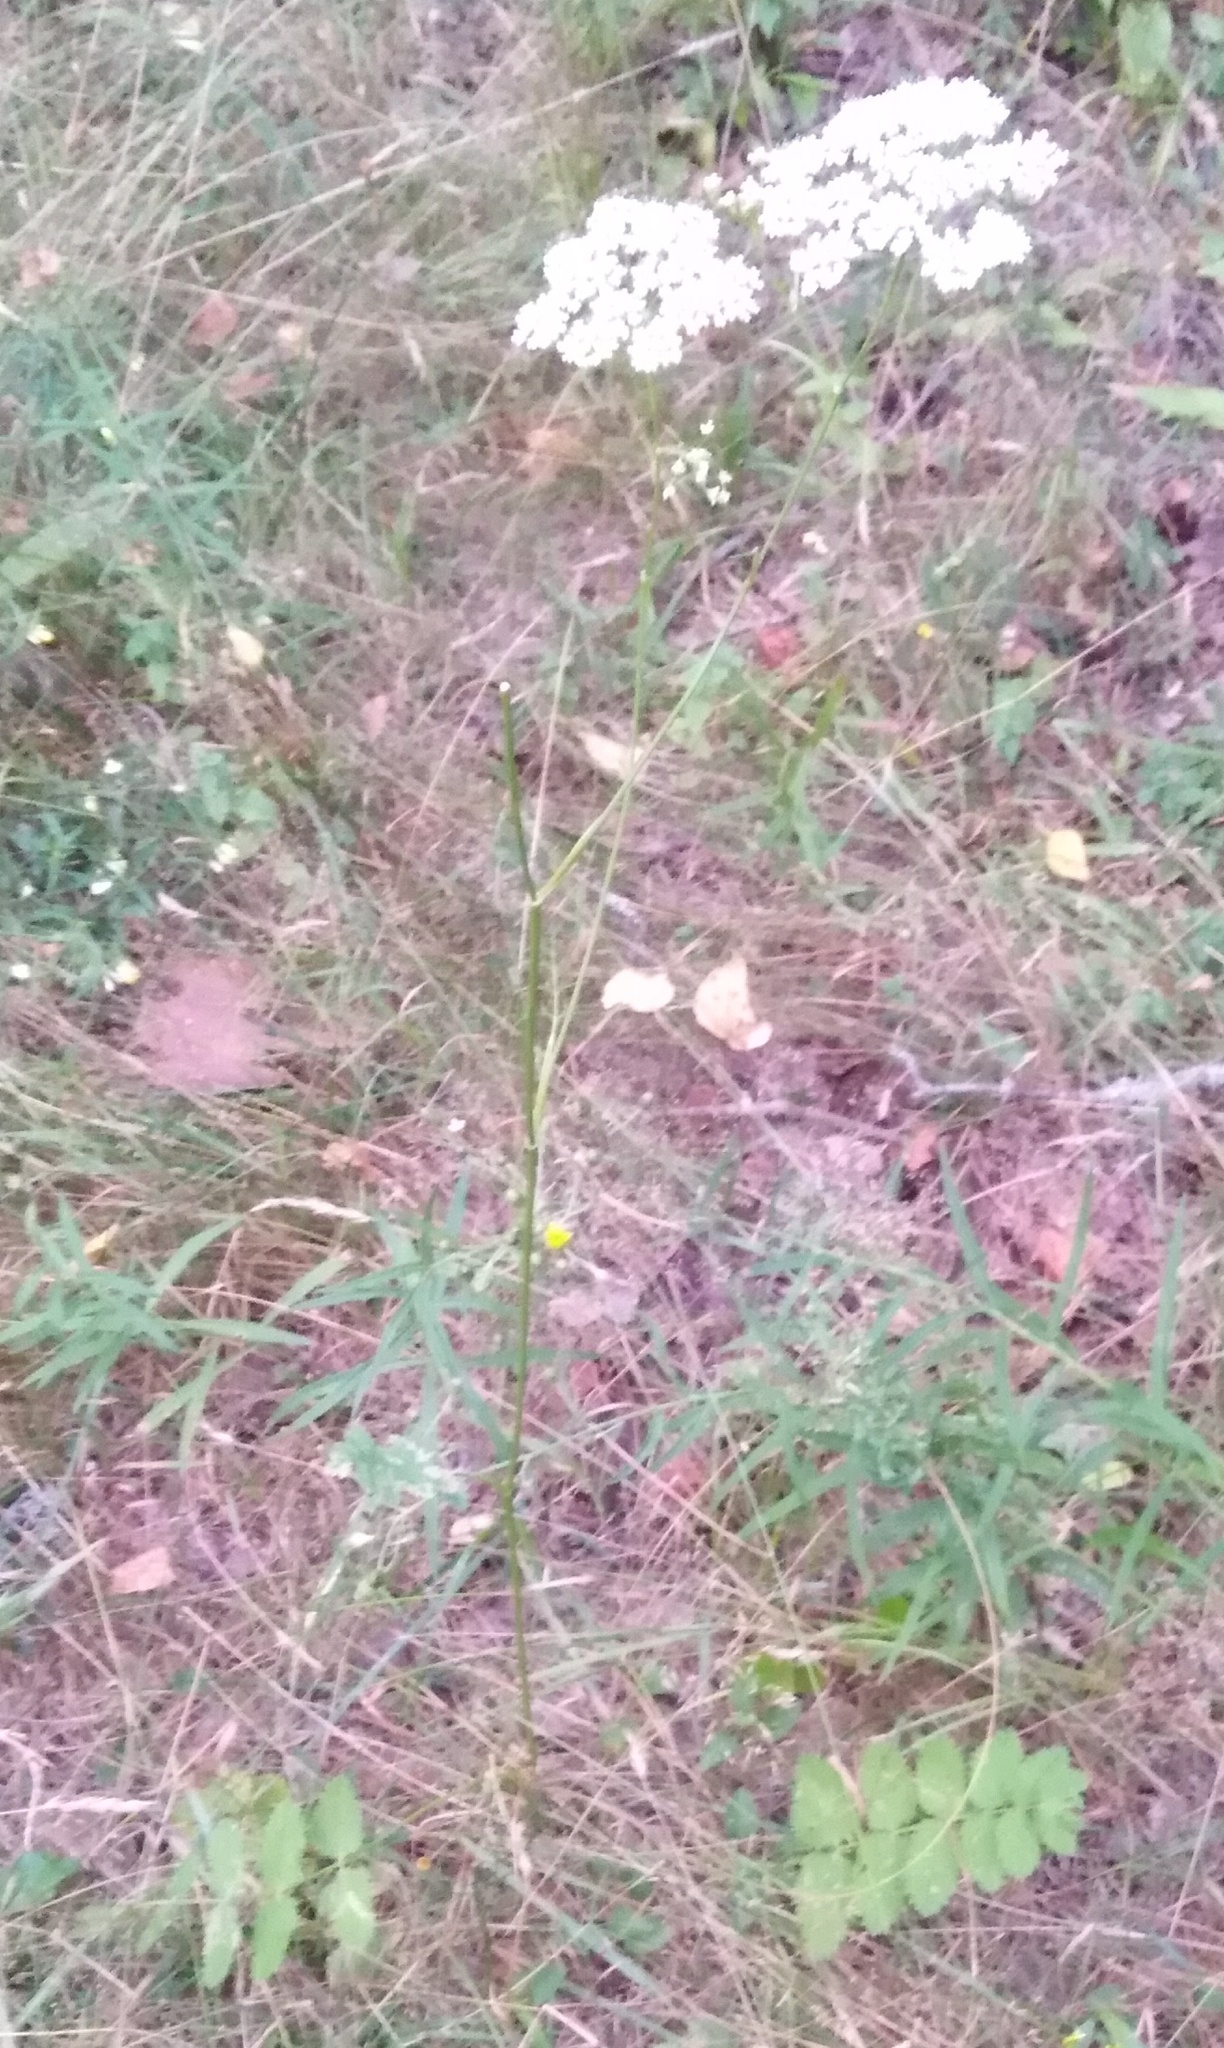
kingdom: Plantae
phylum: Tracheophyta
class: Magnoliopsida
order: Apiales
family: Apiaceae
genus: Pimpinella
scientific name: Pimpinella saxifraga
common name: Burnet-saxifrage
